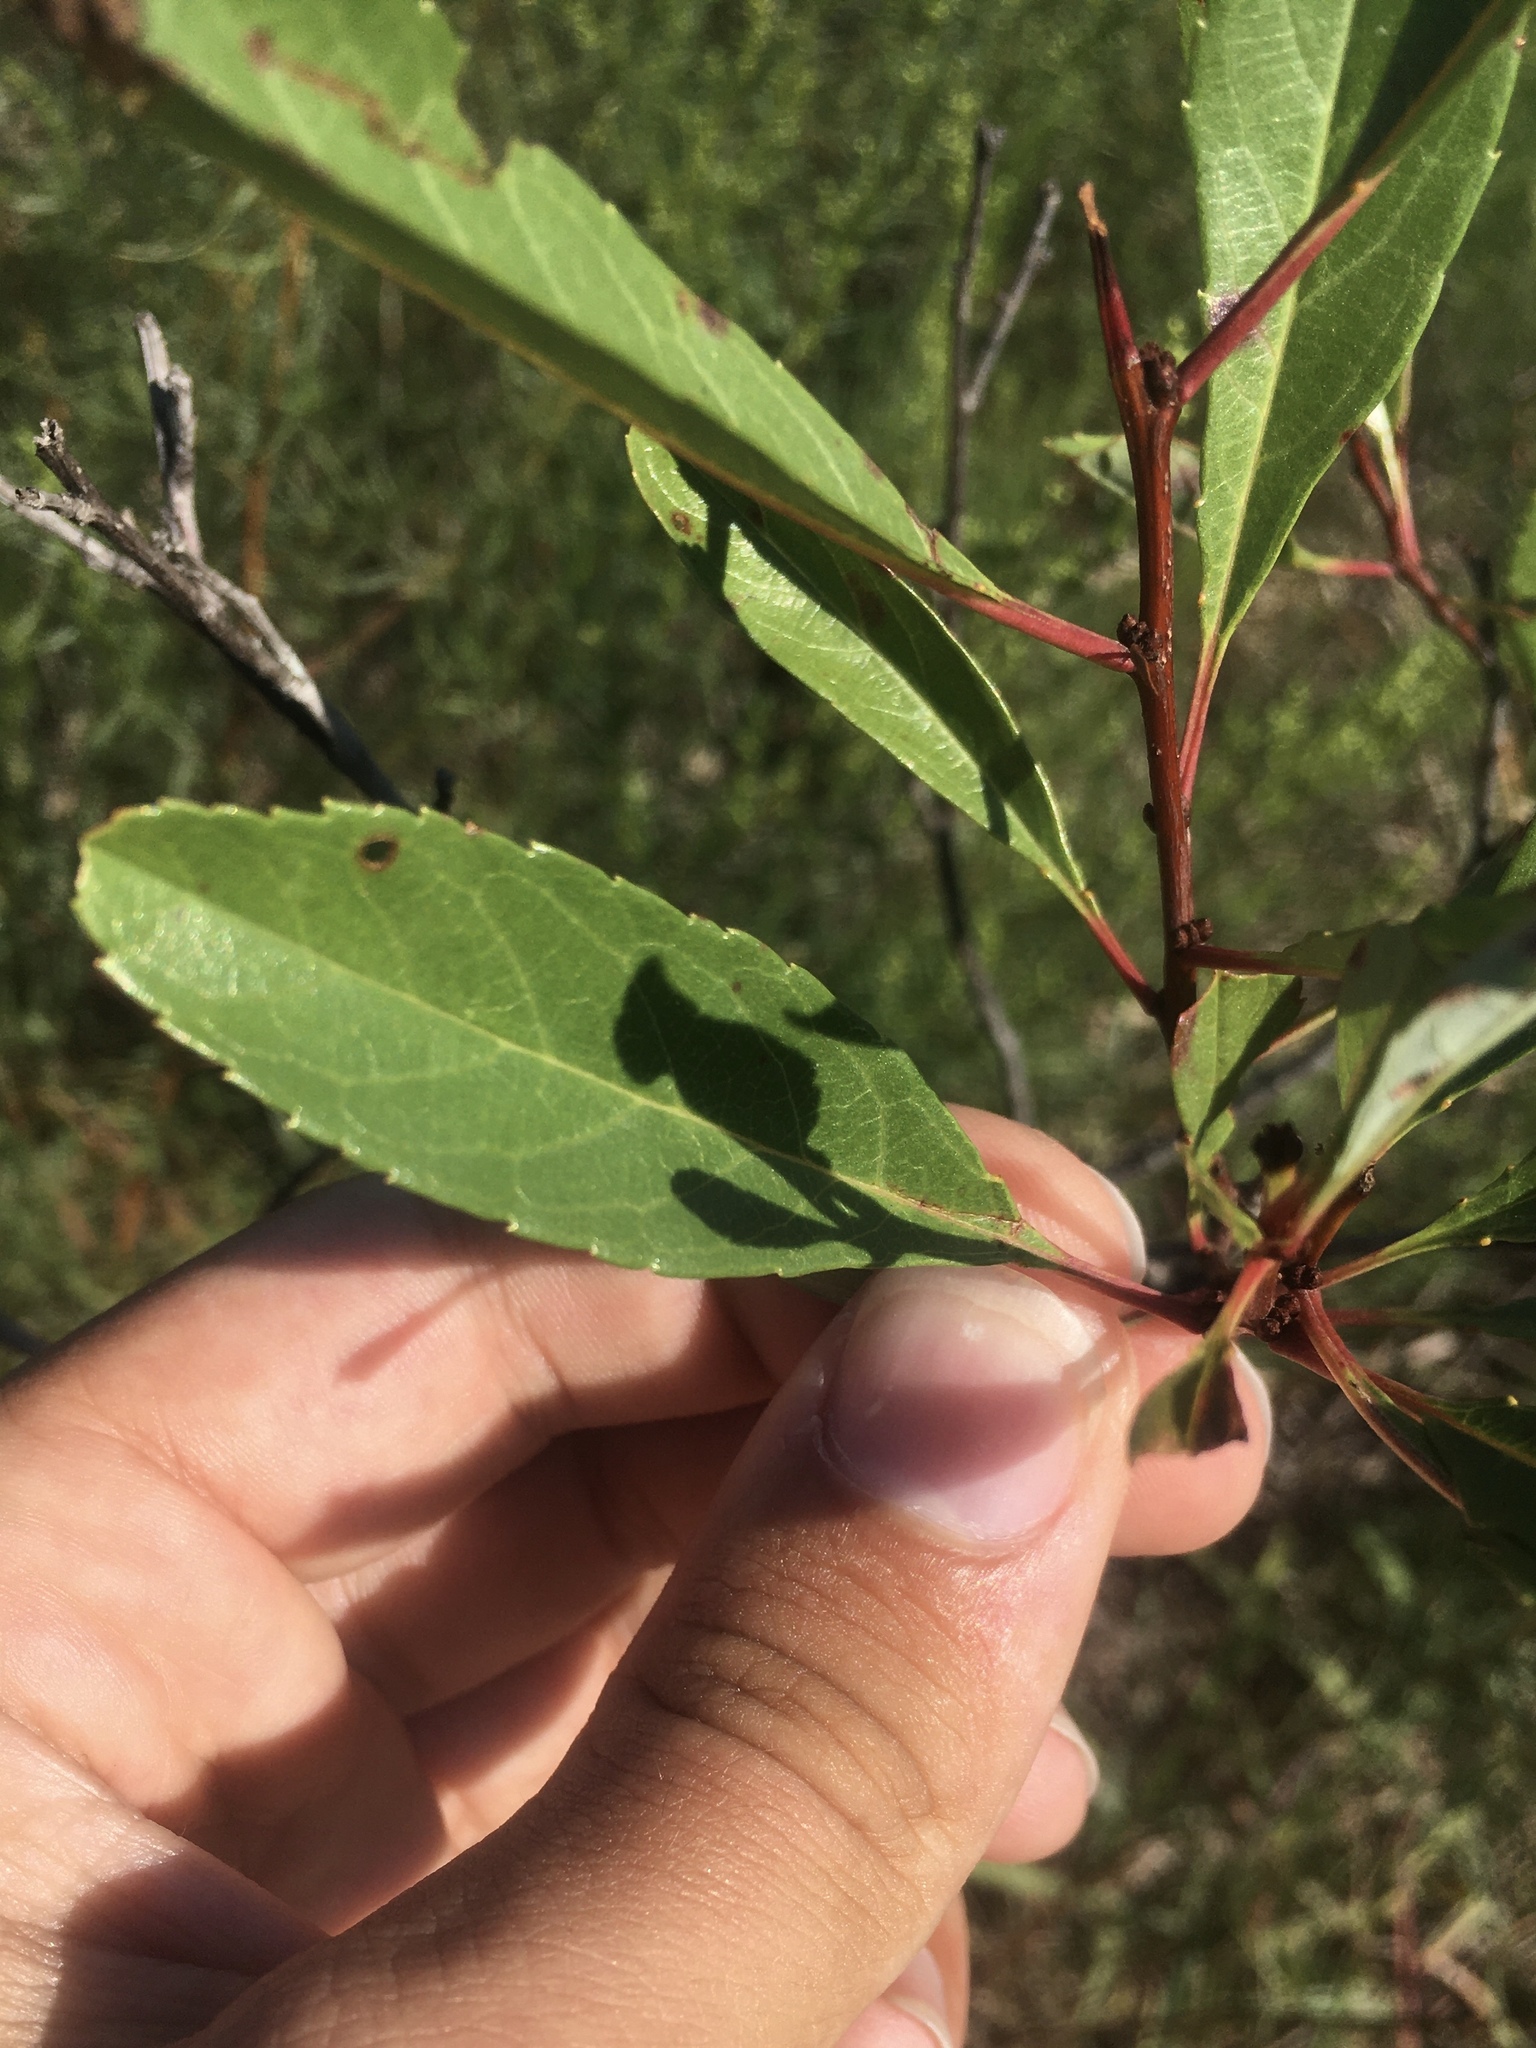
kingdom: Plantae
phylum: Tracheophyta
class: Magnoliopsida
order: Rosales
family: Rosaceae
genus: Prunus
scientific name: Prunus pumila
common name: Dwarf cherry
